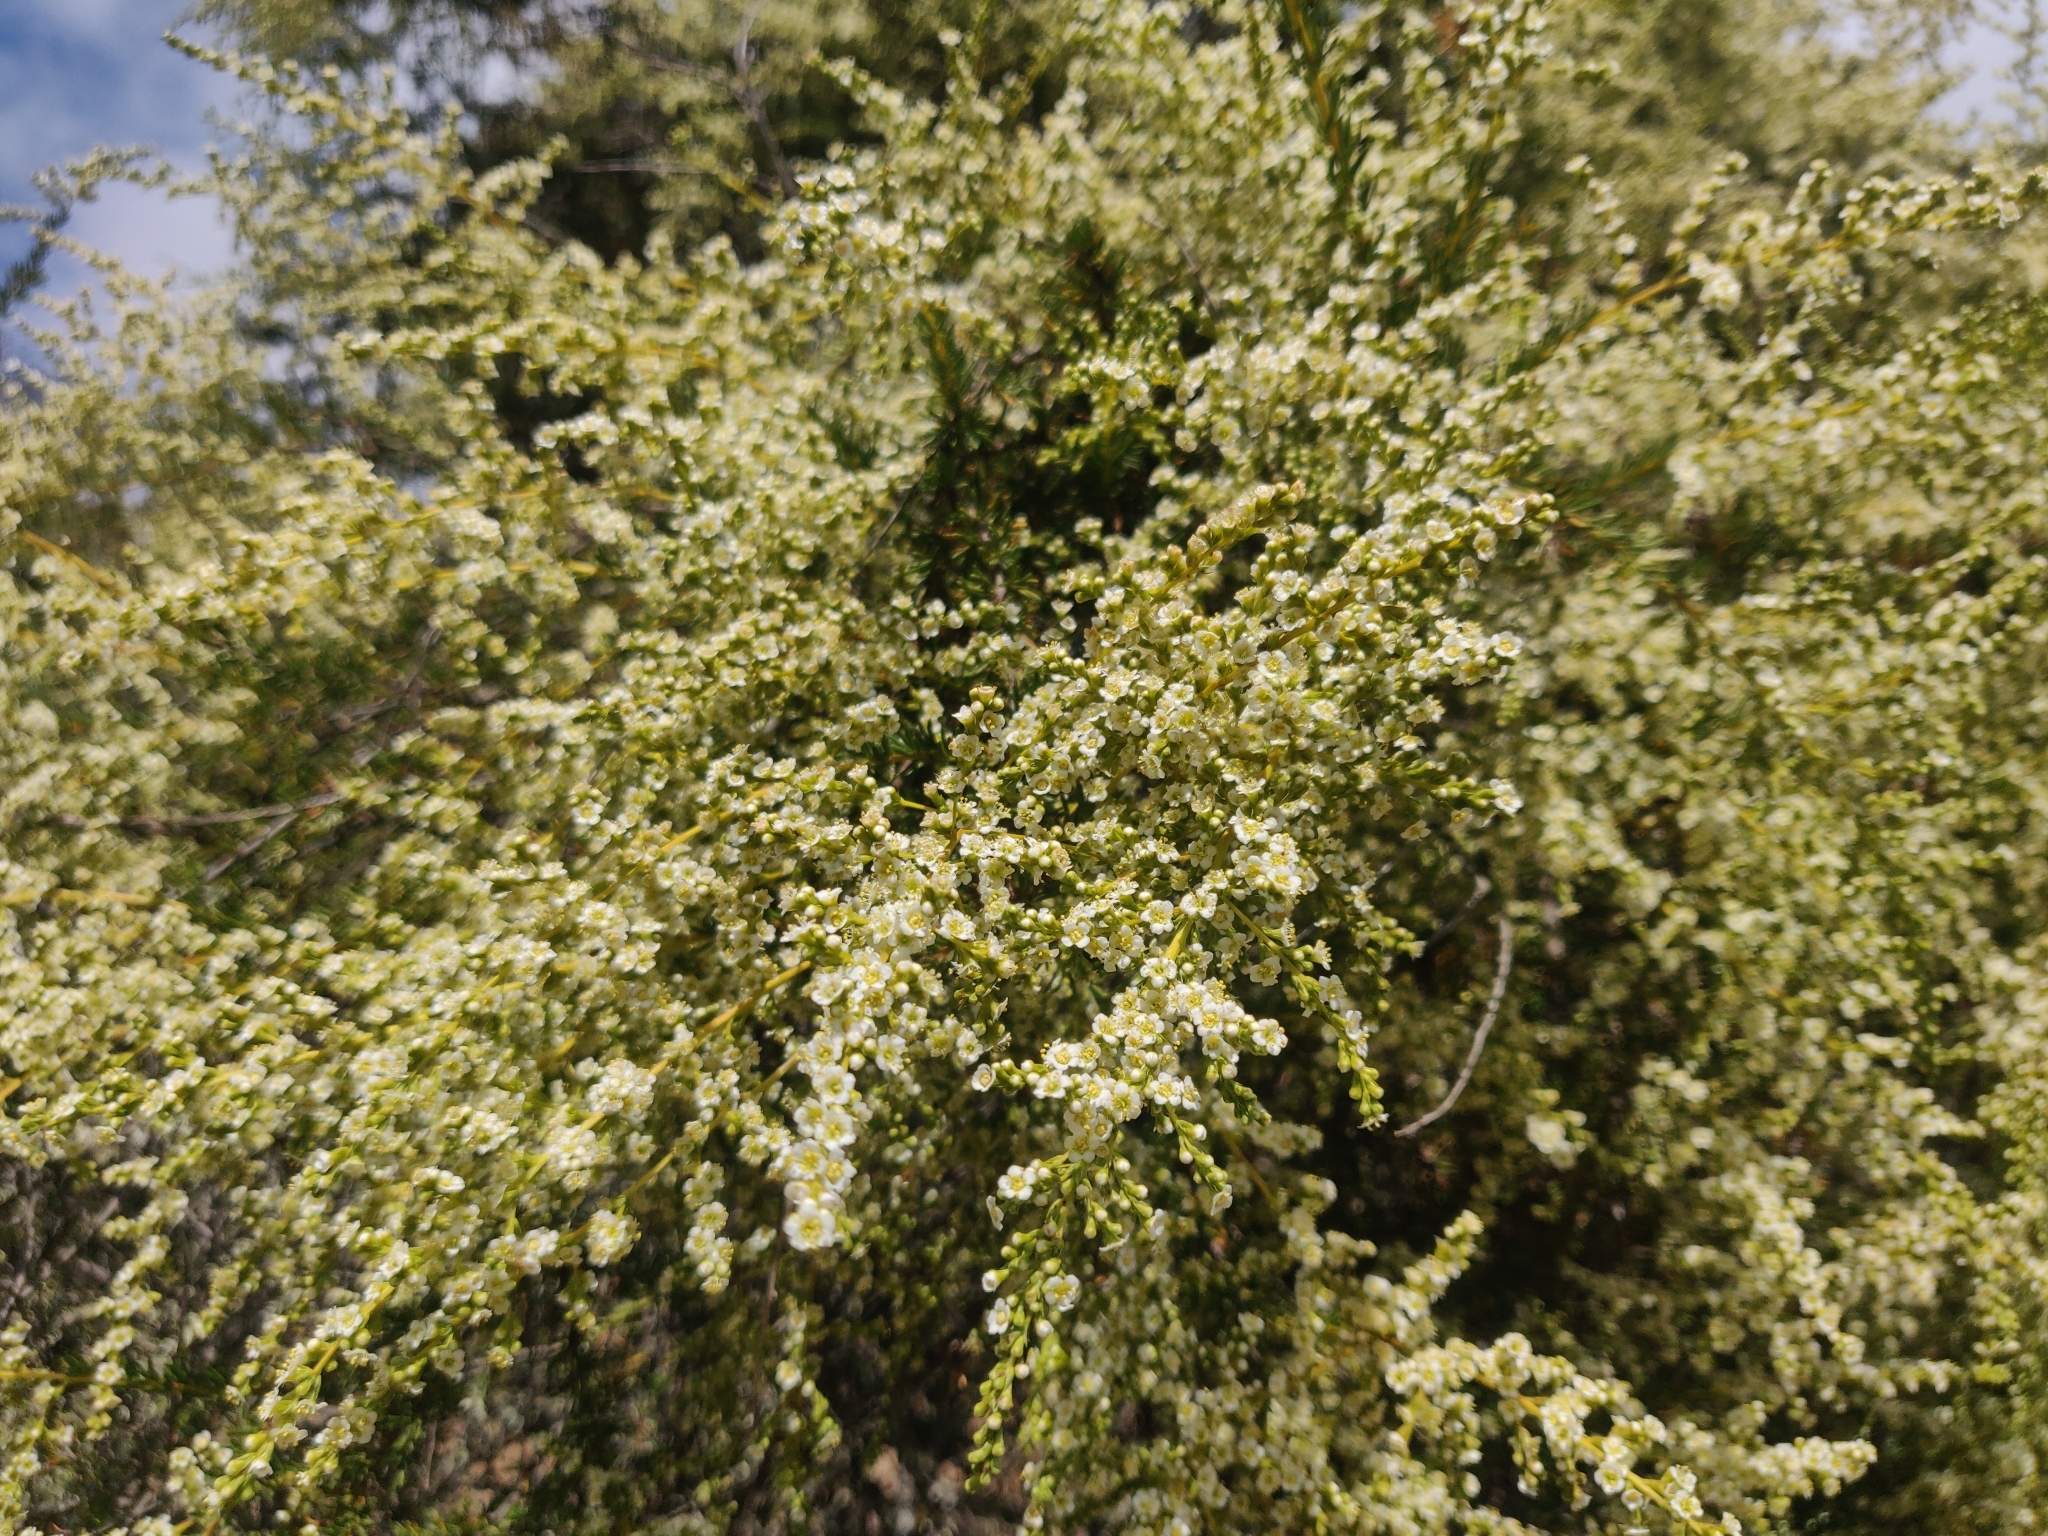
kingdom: Plantae
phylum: Tracheophyta
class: Magnoliopsida
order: Rosales
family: Rosaceae
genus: Adenostoma
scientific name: Adenostoma fasciculatum
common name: Chamise
